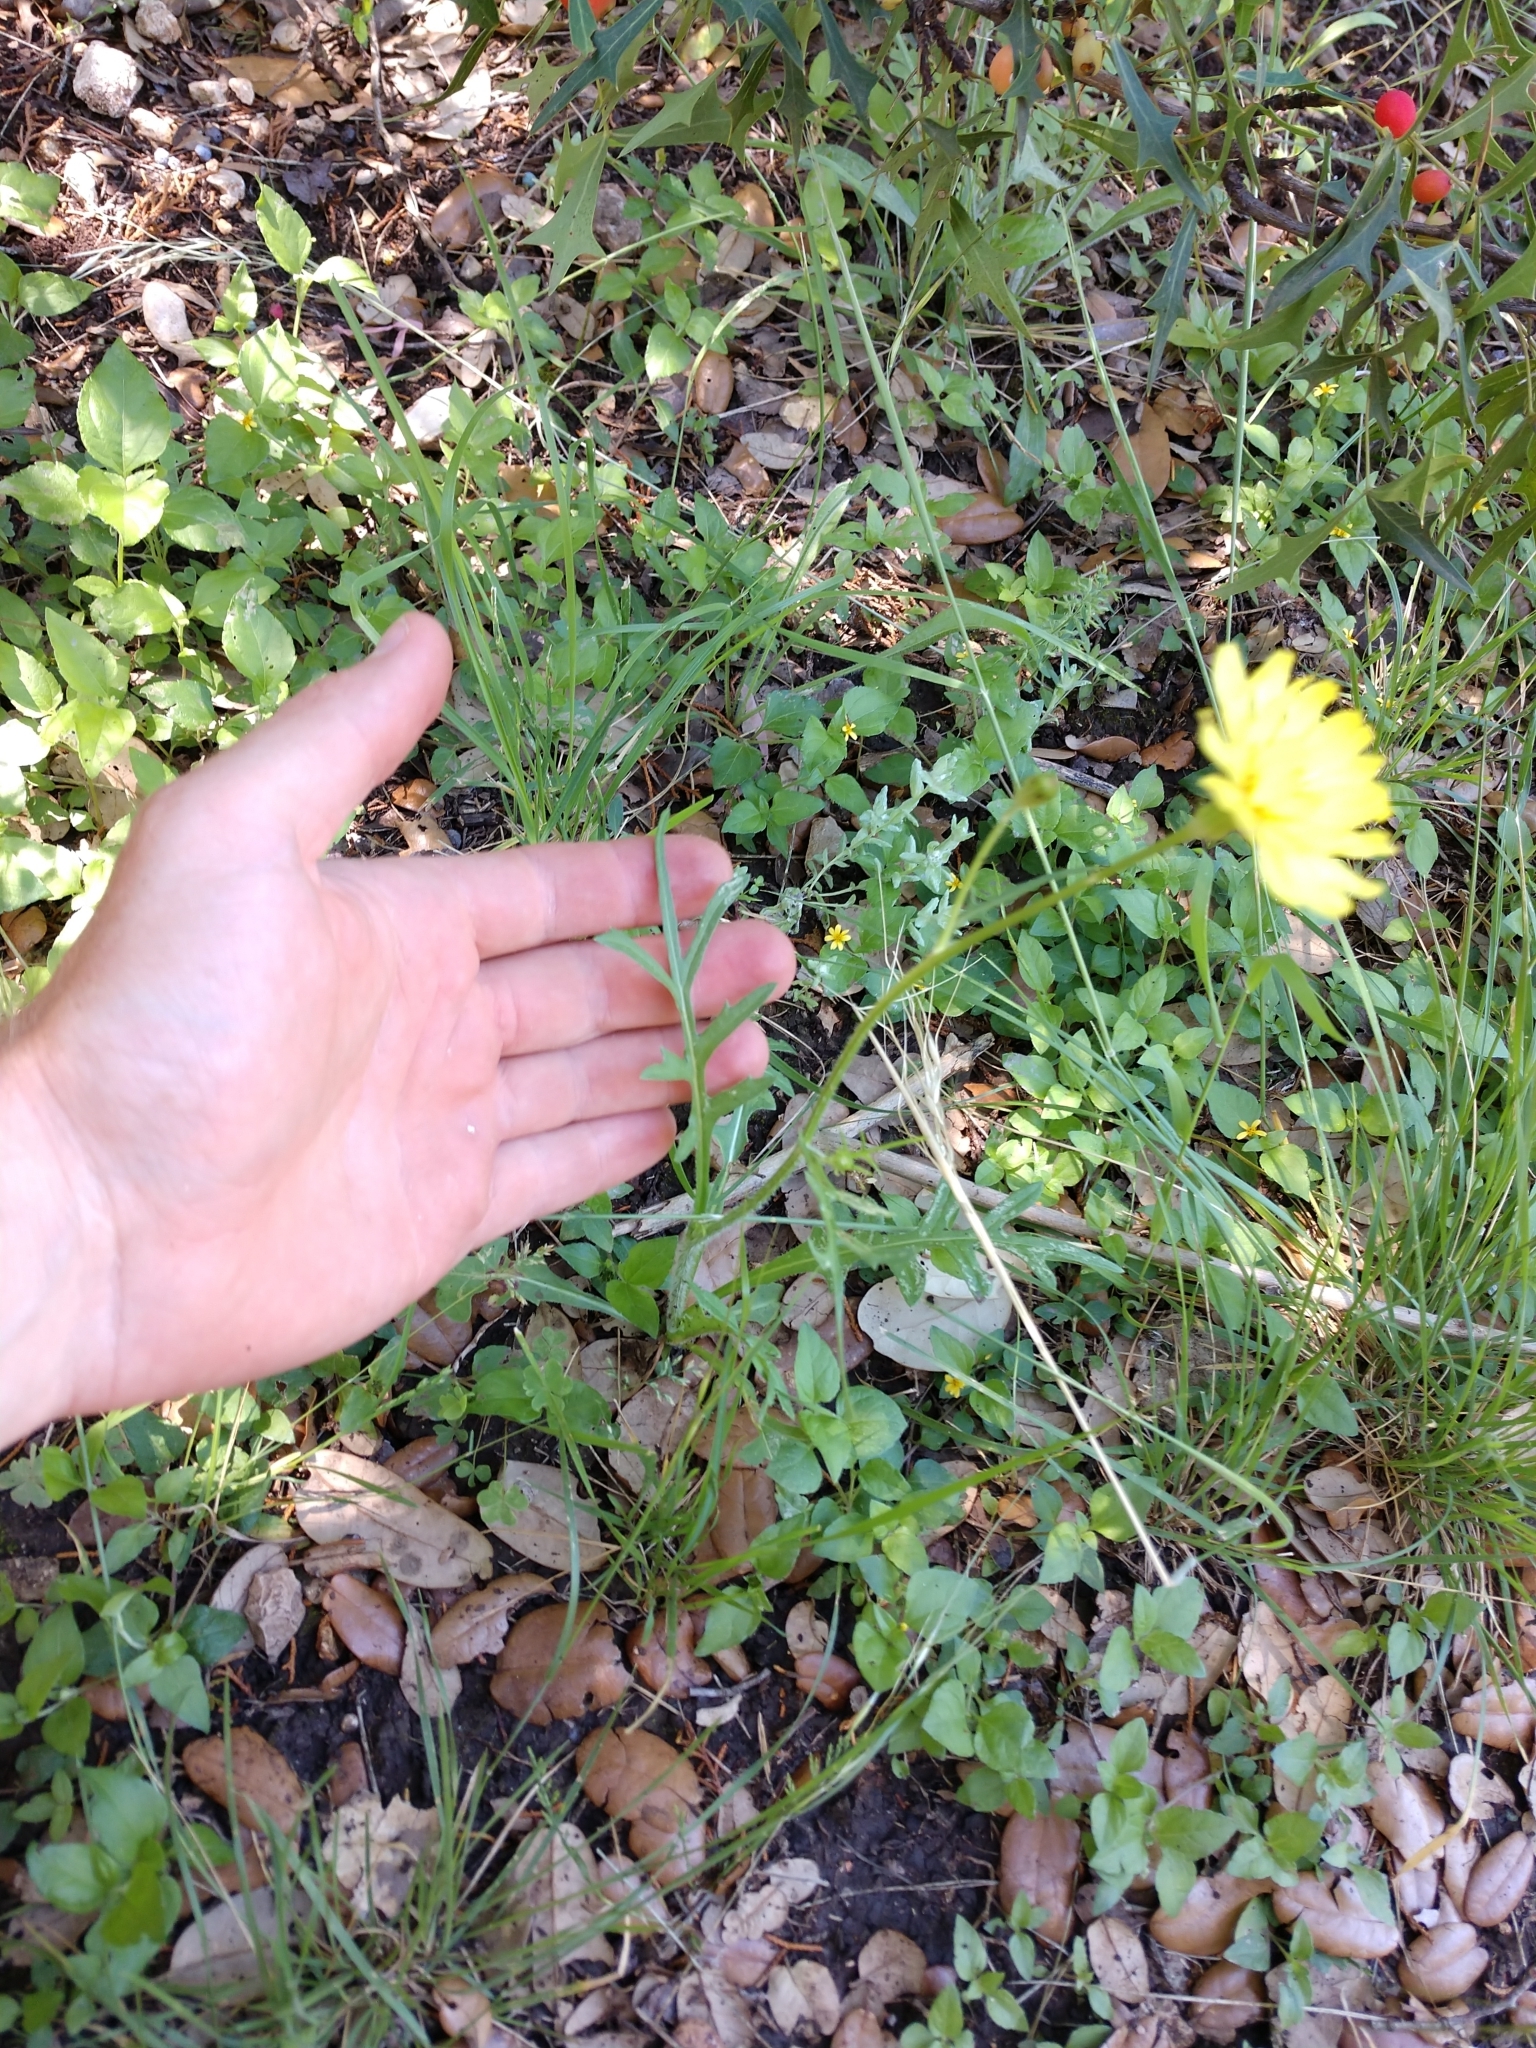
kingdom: Plantae
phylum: Tracheophyta
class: Magnoliopsida
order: Asterales
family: Asteraceae
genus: Pyrrhopappus
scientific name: Pyrrhopappus pauciflorus
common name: Texas false dandelion
